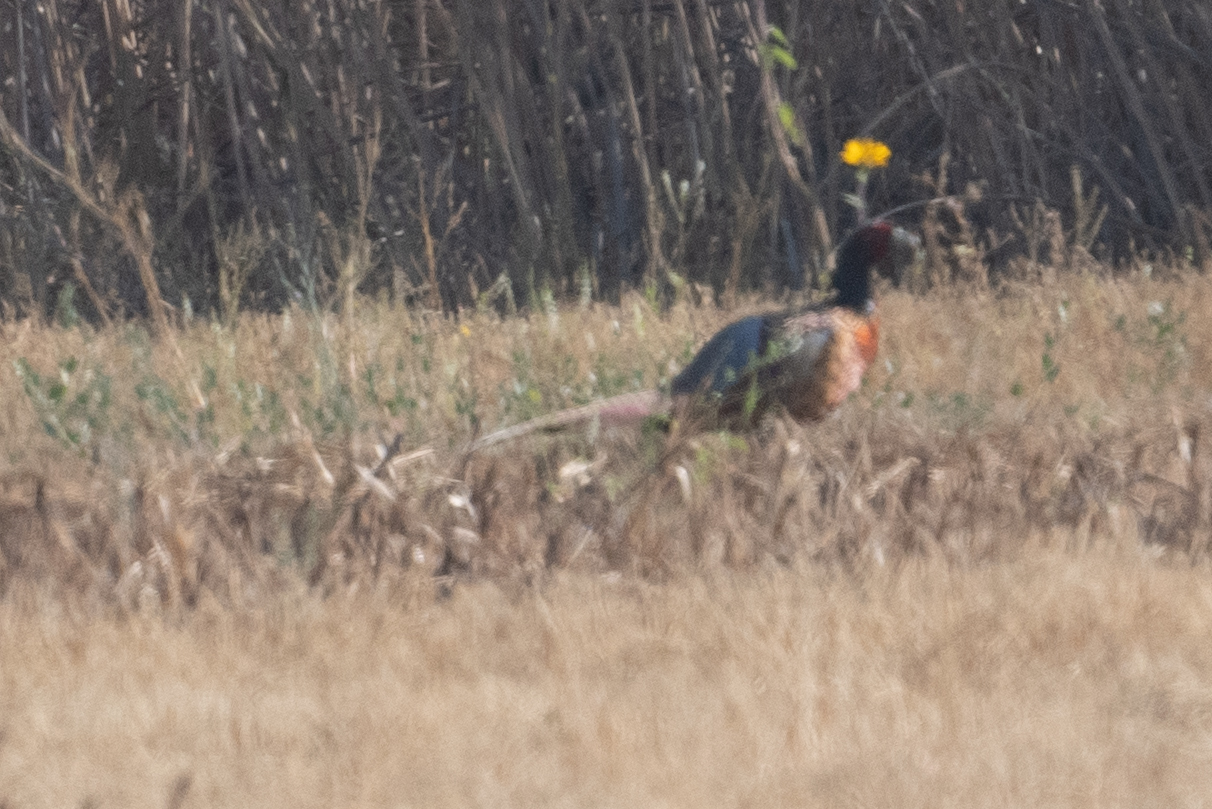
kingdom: Animalia
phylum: Chordata
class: Aves
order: Galliformes
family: Phasianidae
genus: Phasianus
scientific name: Phasianus colchicus
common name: Common pheasant
